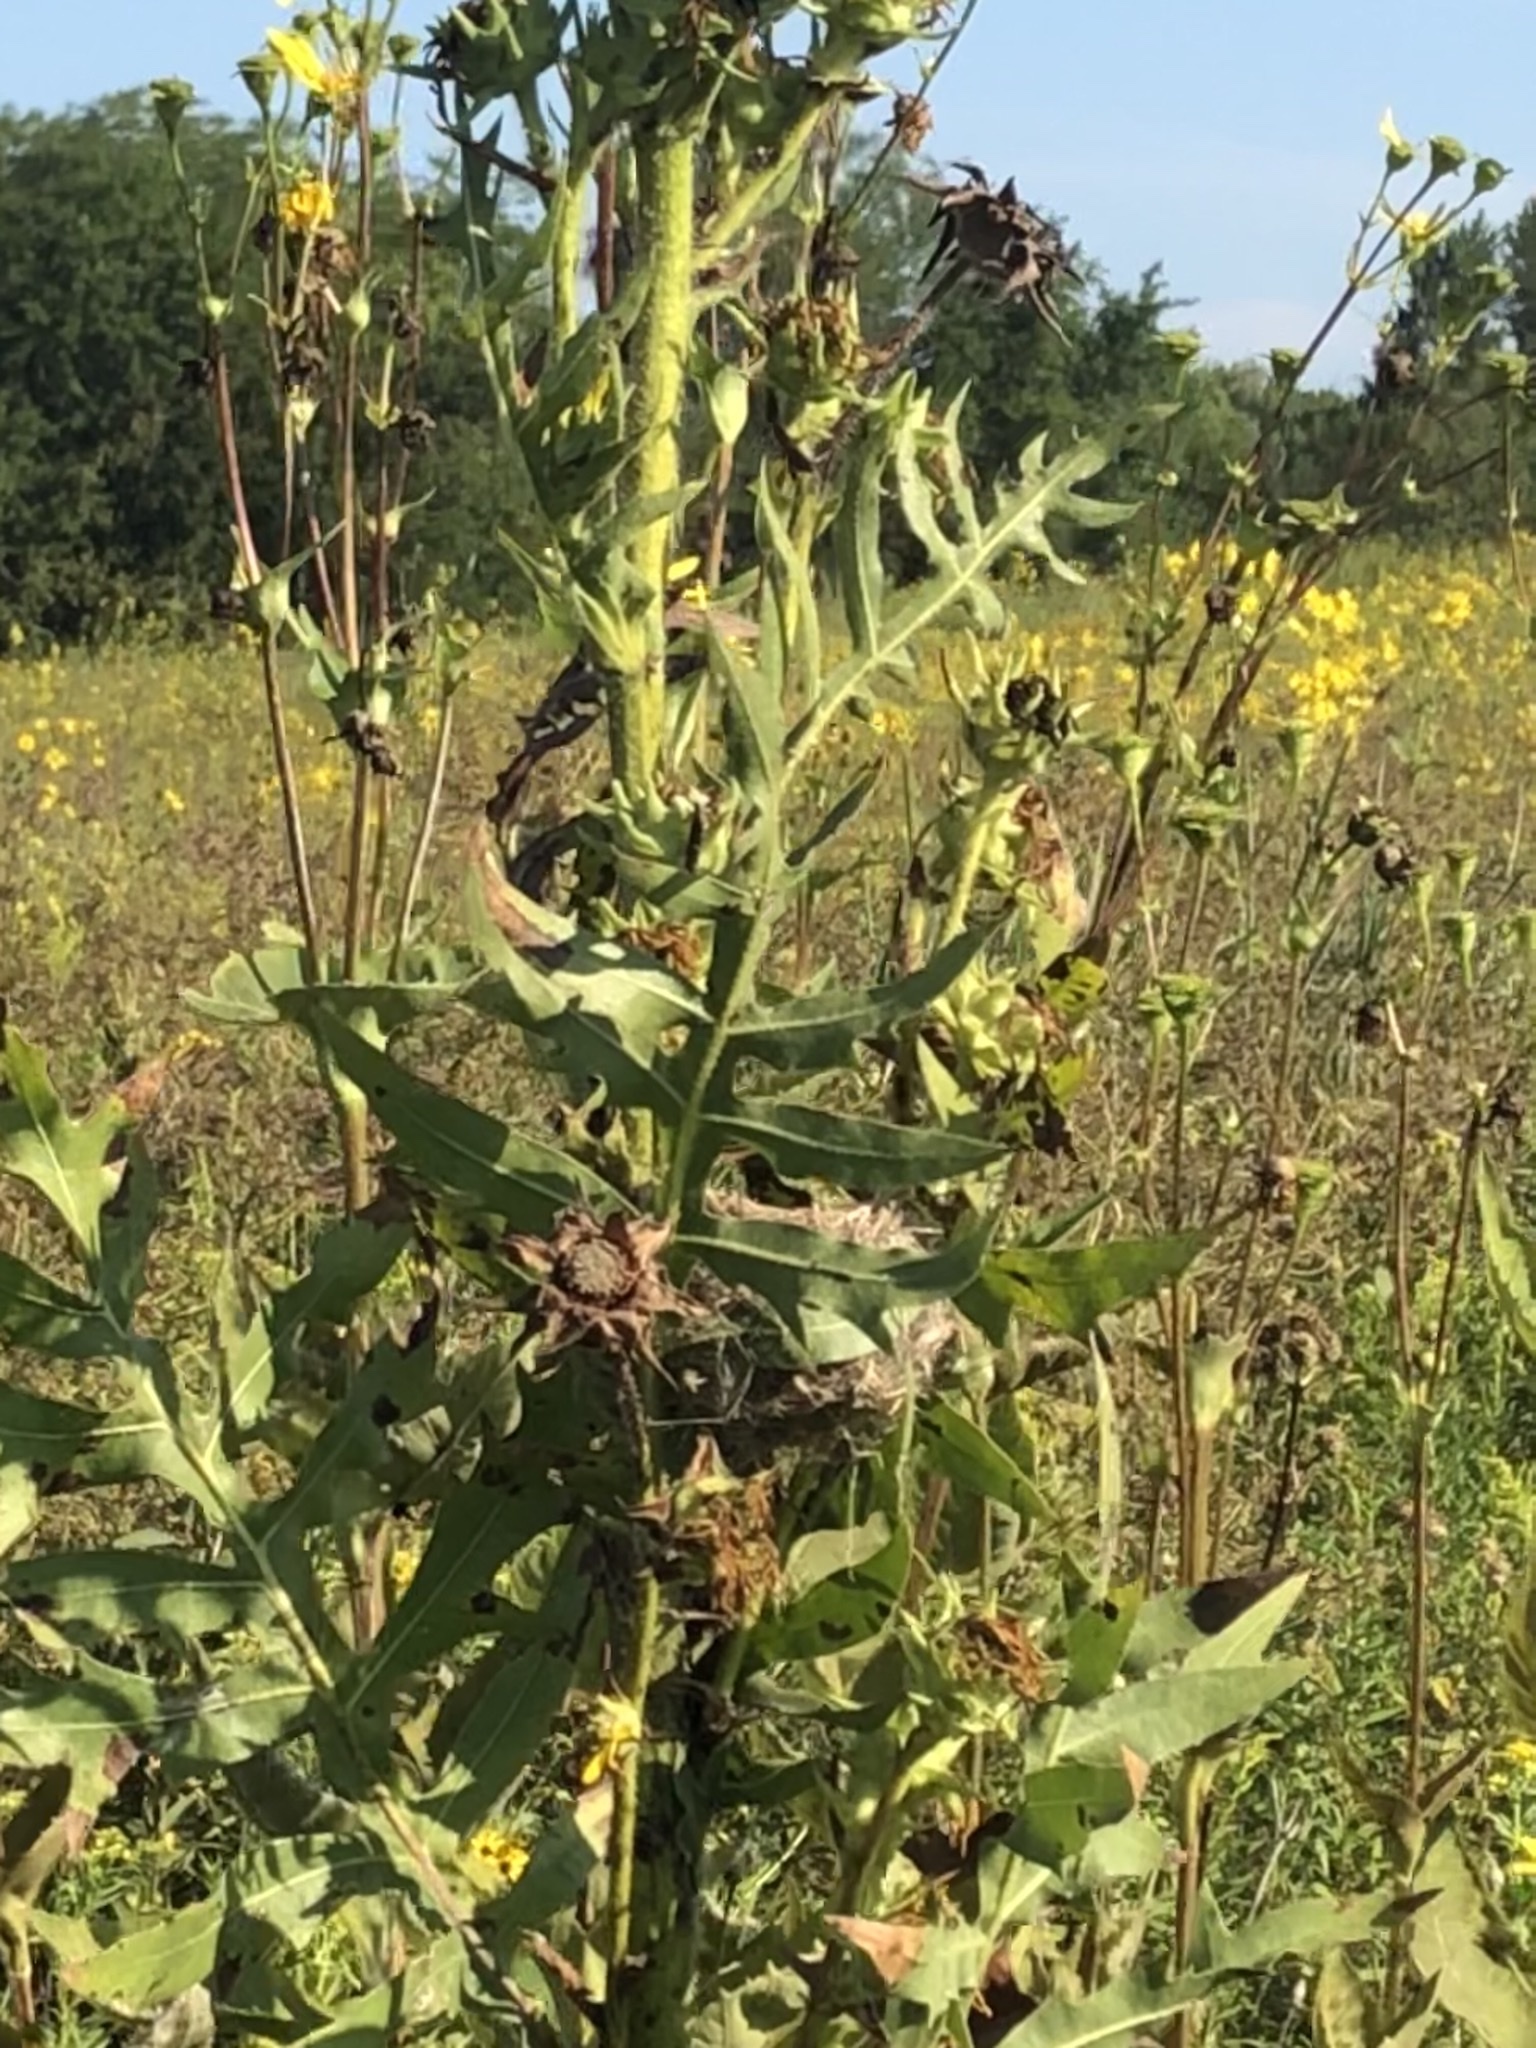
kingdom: Animalia
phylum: Chordata
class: Aves
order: Passeriformes
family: Fringillidae
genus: Spinus
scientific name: Spinus tristis
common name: American goldfinch
